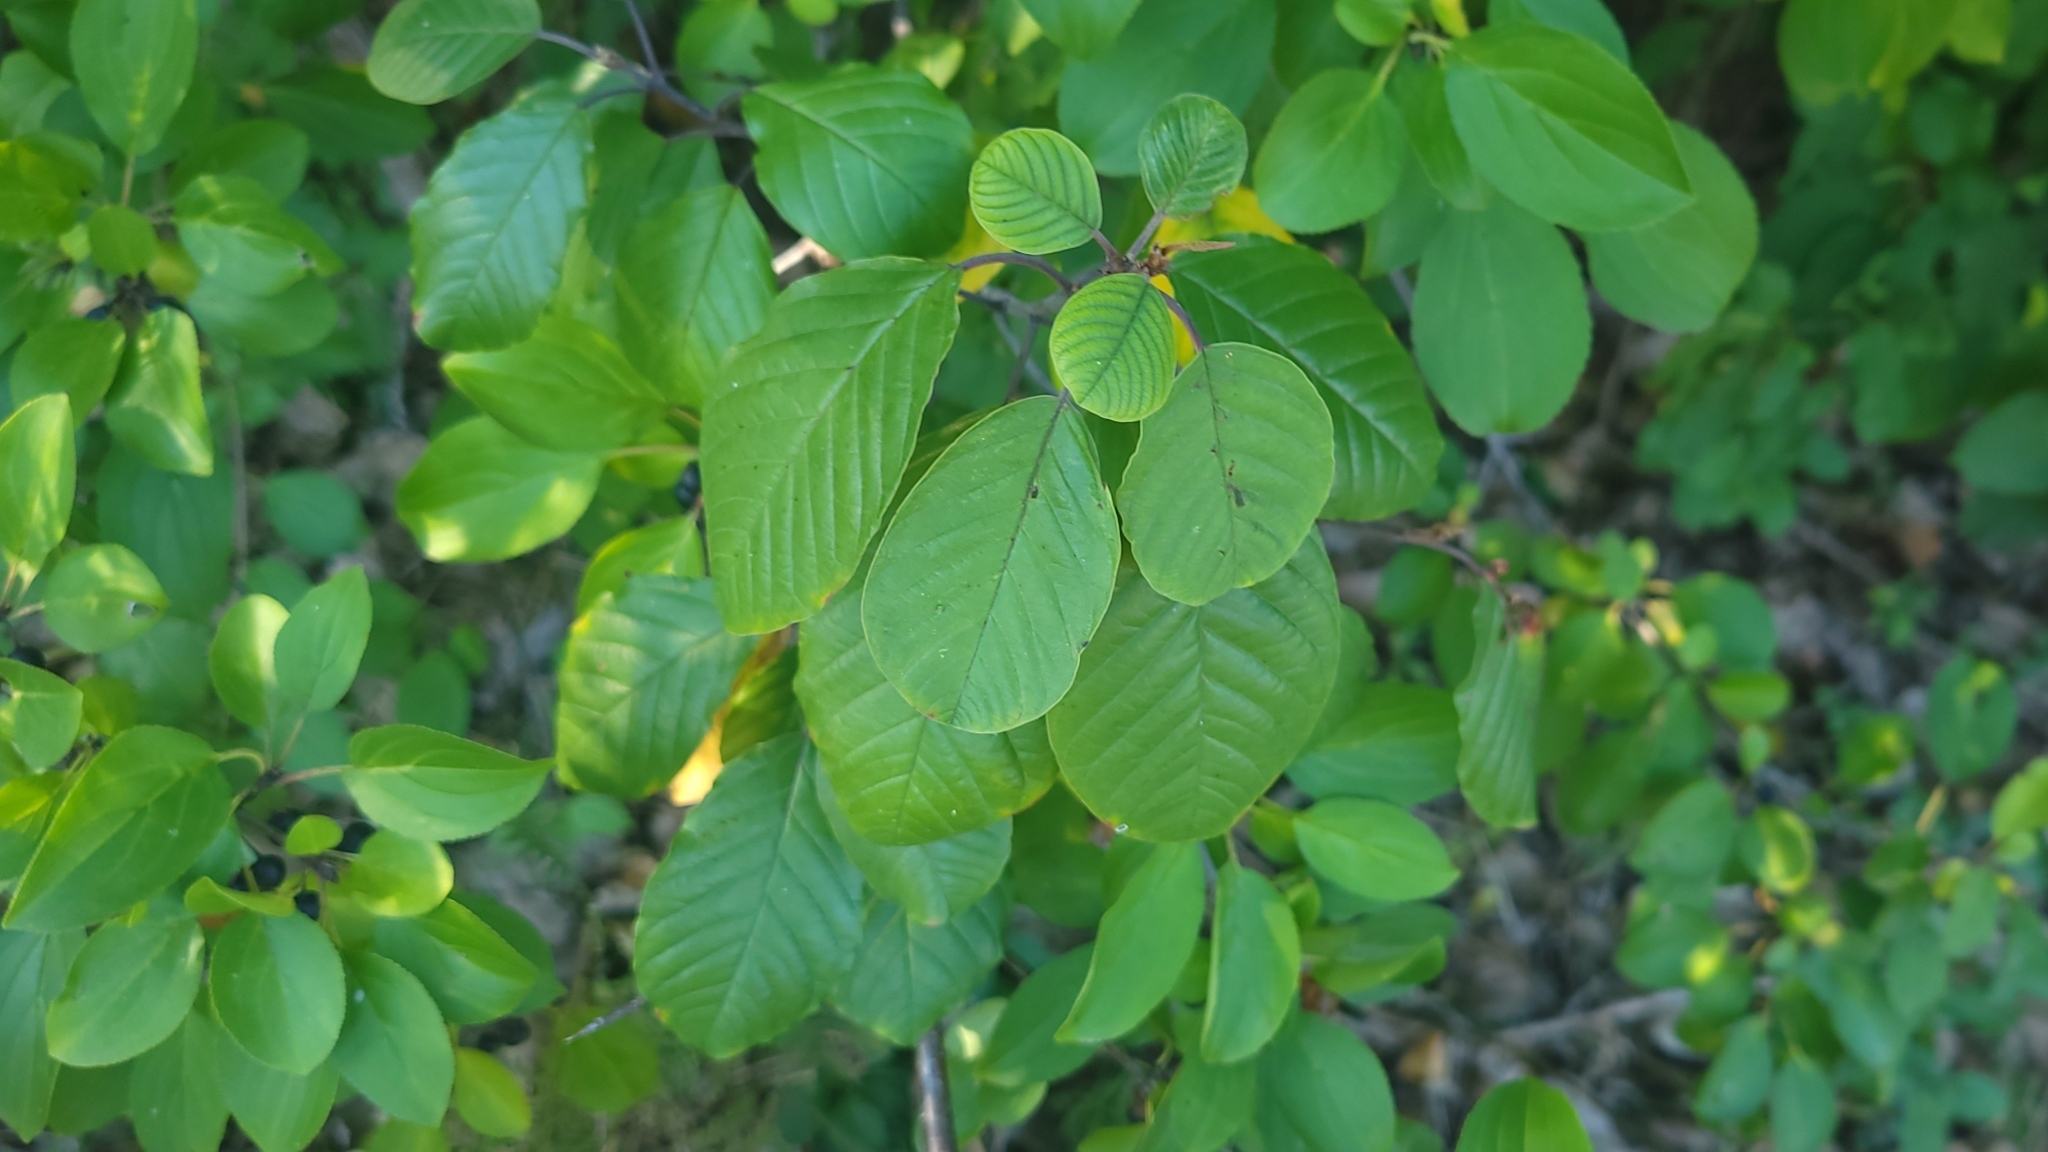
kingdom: Plantae
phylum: Tracheophyta
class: Magnoliopsida
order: Rosales
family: Rhamnaceae
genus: Frangula
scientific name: Frangula alnus
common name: Alder buckthorn
